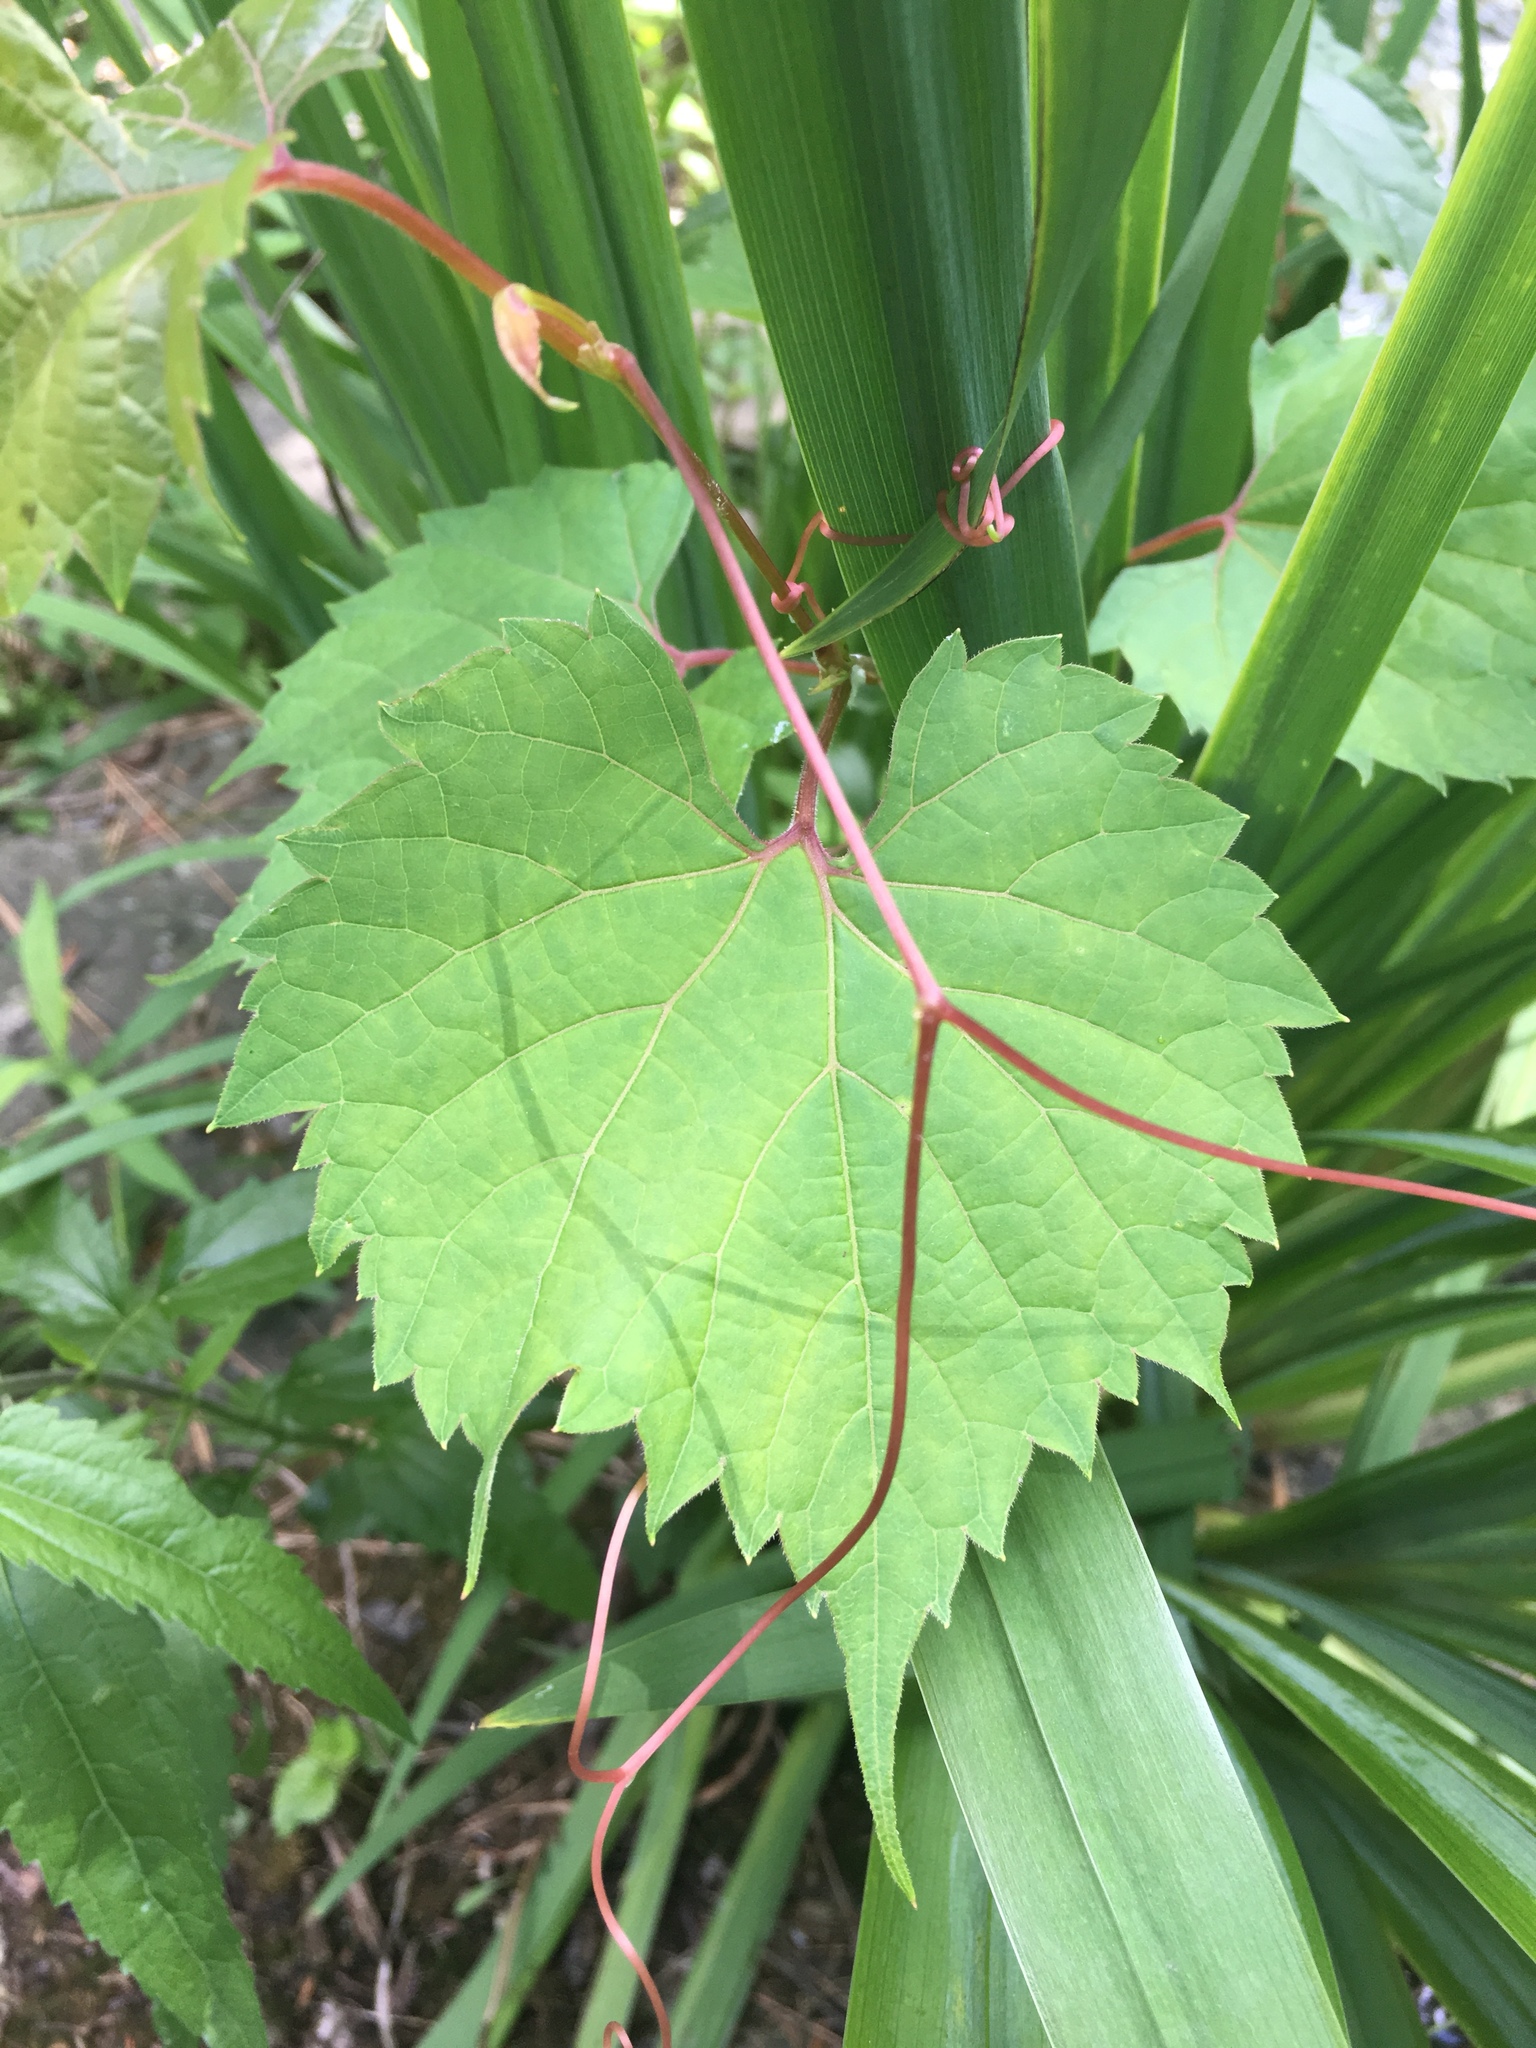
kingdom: Plantae
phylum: Tracheophyta
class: Magnoliopsida
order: Vitales
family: Vitaceae
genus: Vitis
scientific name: Vitis riparia
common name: Frost grape
